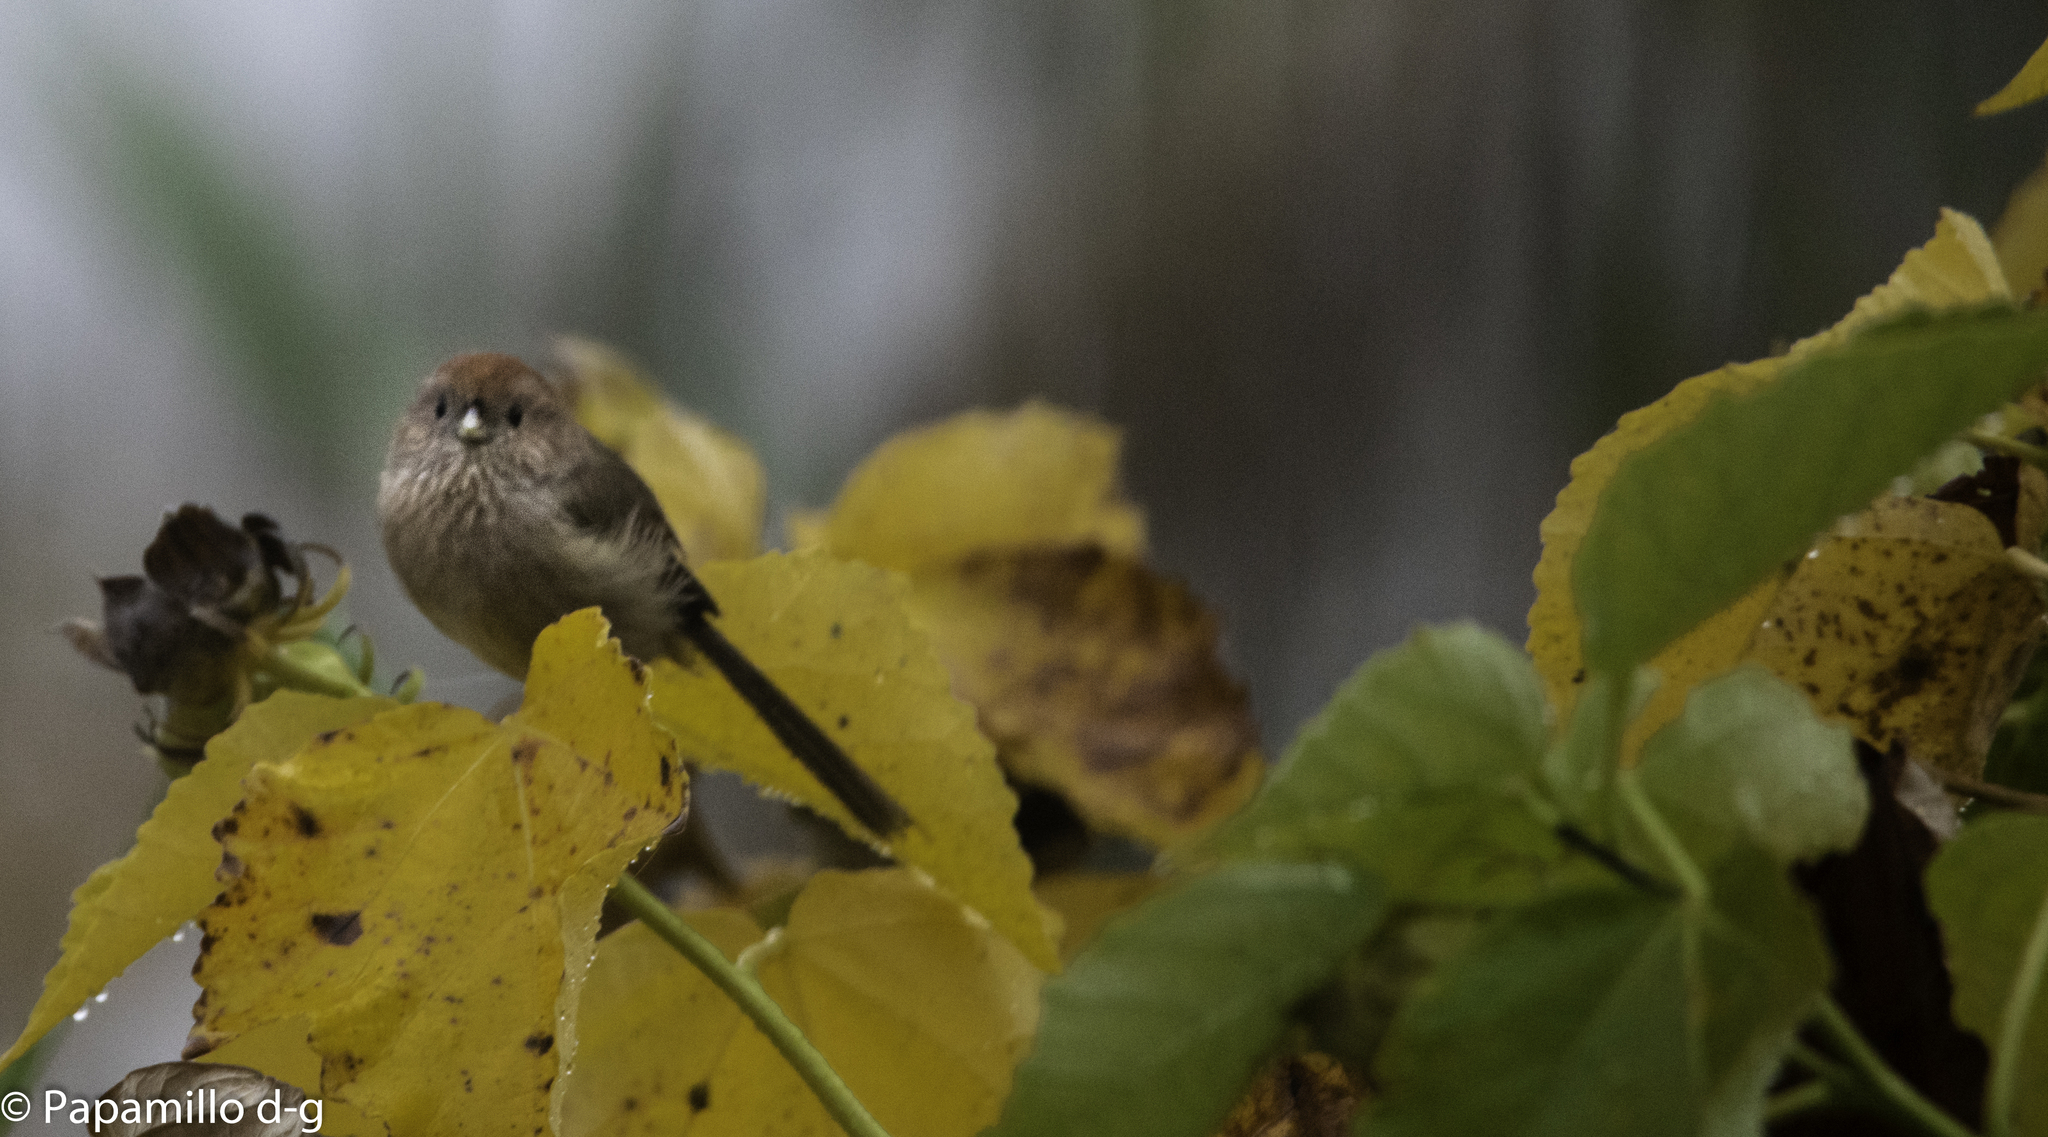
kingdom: Animalia
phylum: Chordata
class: Aves
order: Passeriformes
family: Sylviidae
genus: Sinosuthora
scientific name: Sinosuthora webbiana
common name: Vinous-throated parrotbill
